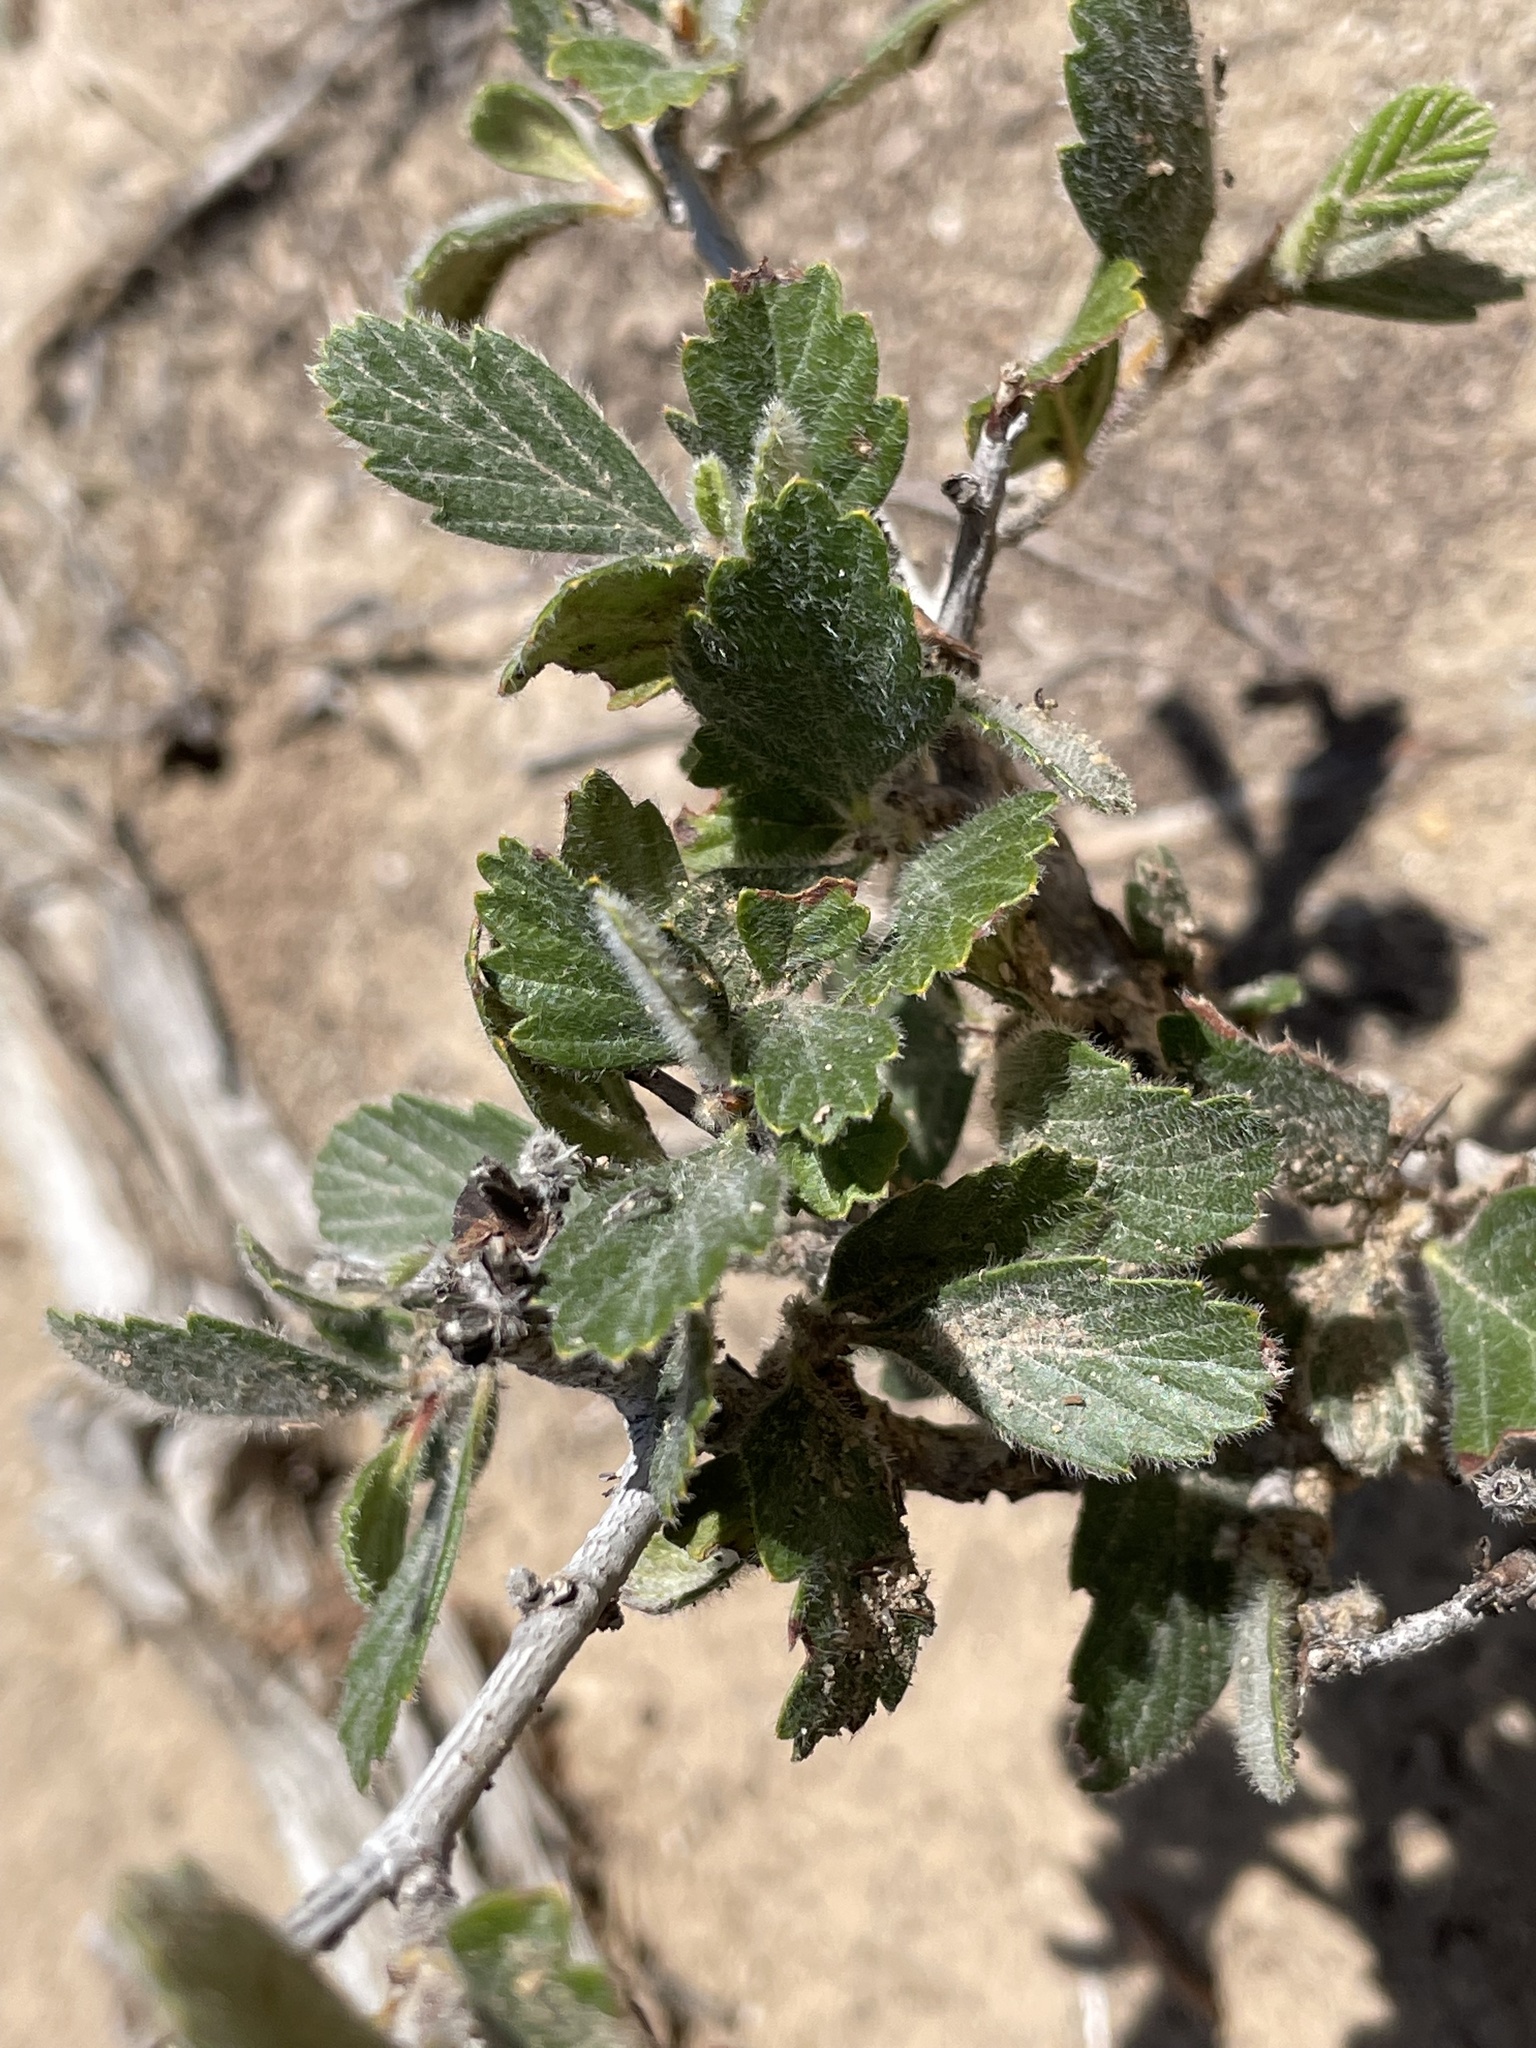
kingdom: Plantae
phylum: Tracheophyta
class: Magnoliopsida
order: Rosales
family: Rosaceae
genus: Cercocarpus
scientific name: Cercocarpus montanus
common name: Alder-leaf cercocarpus
